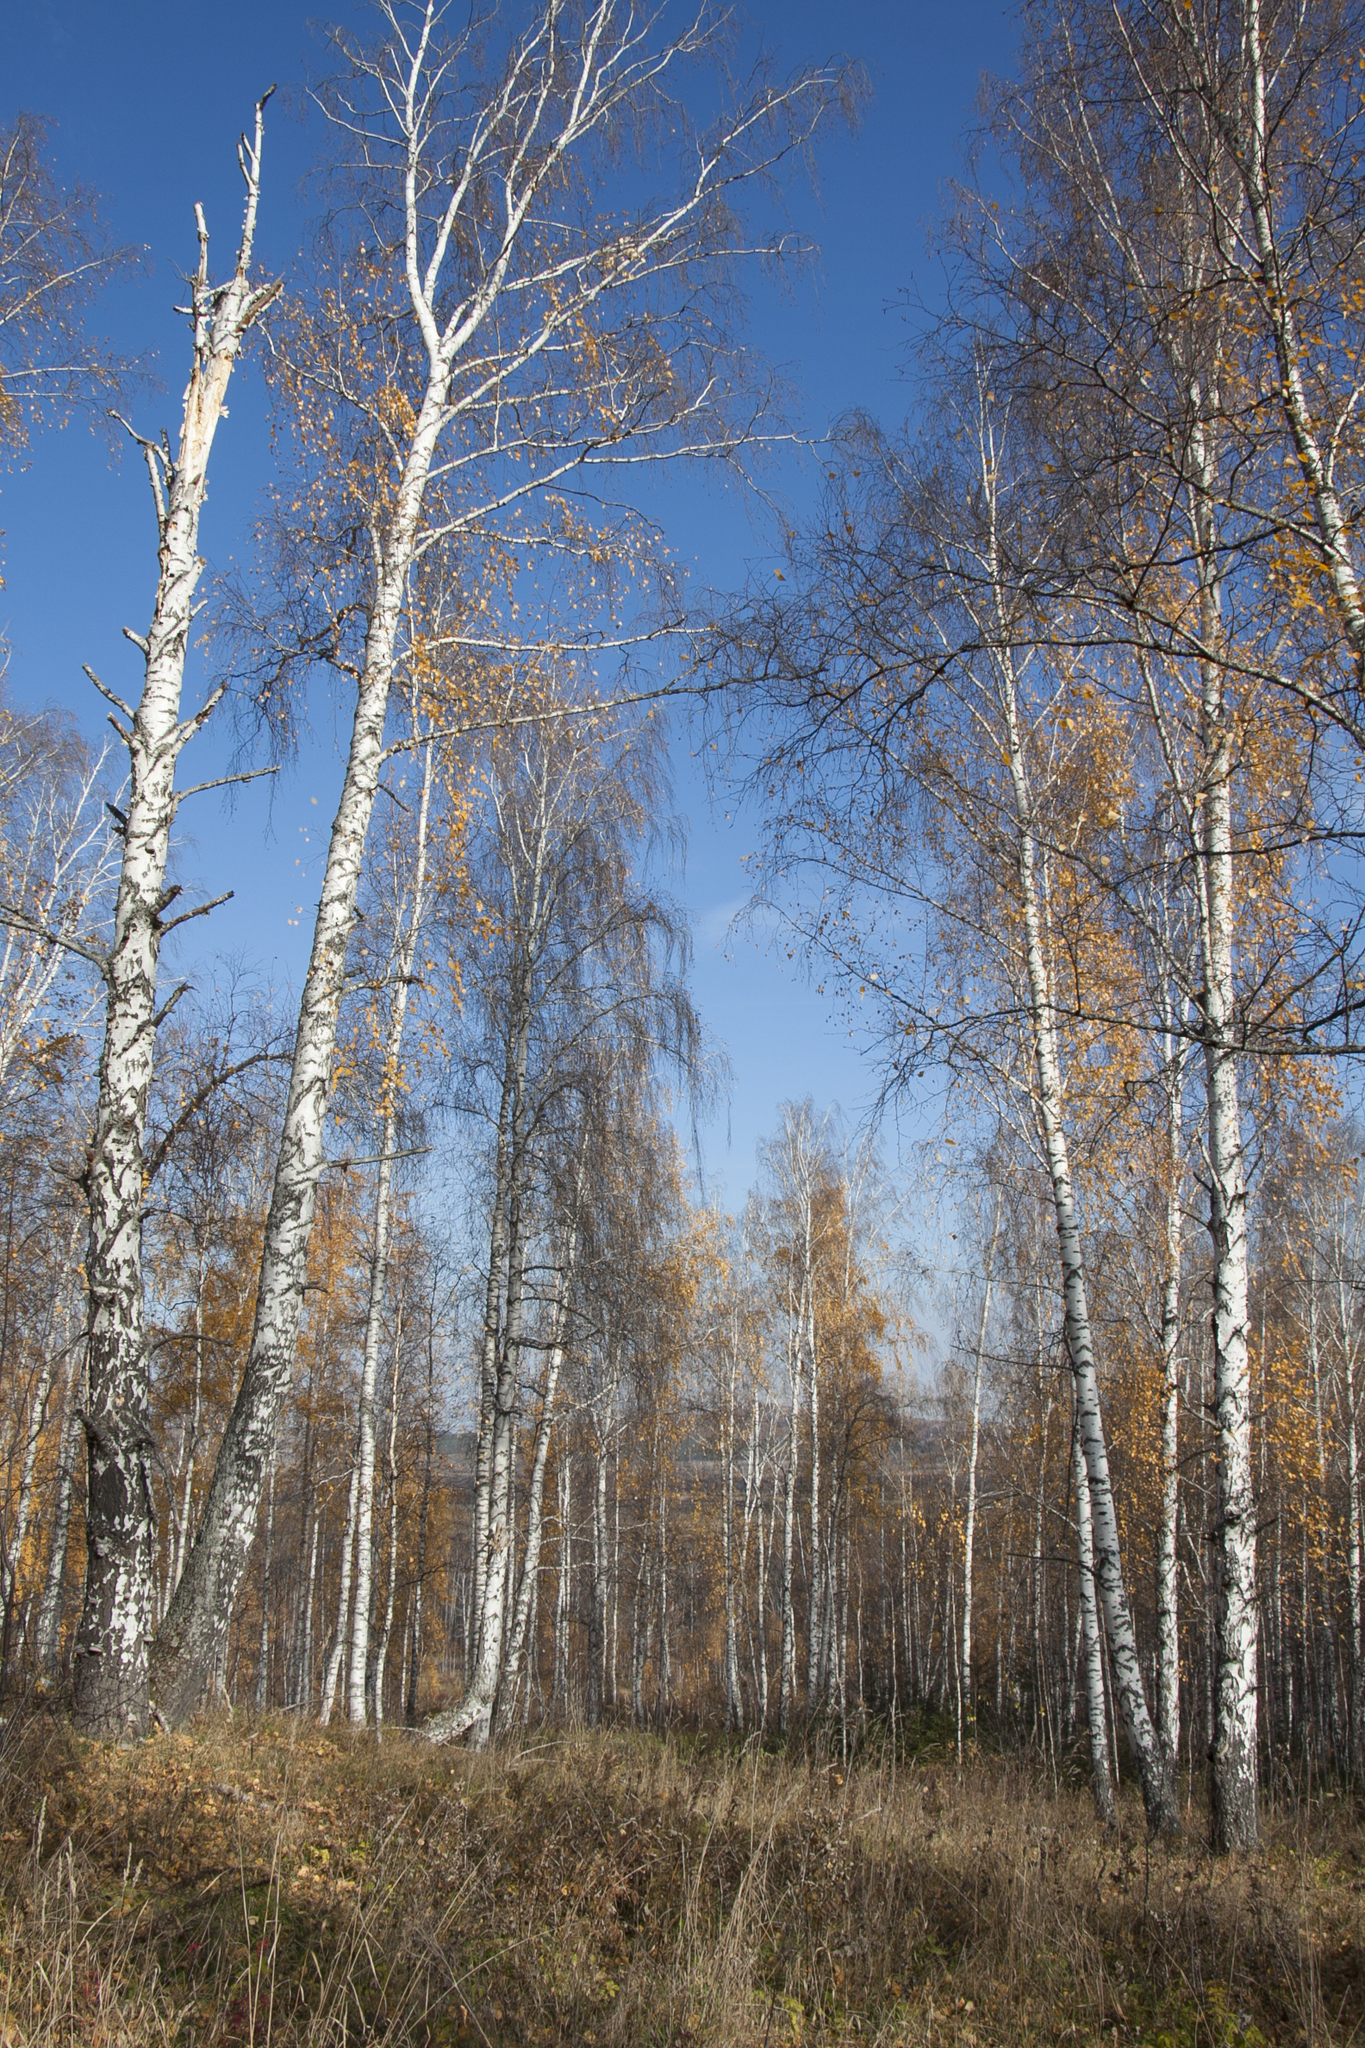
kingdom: Plantae
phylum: Tracheophyta
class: Magnoliopsida
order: Fagales
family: Betulaceae
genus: Betula
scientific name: Betula pendula
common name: Silver birch
